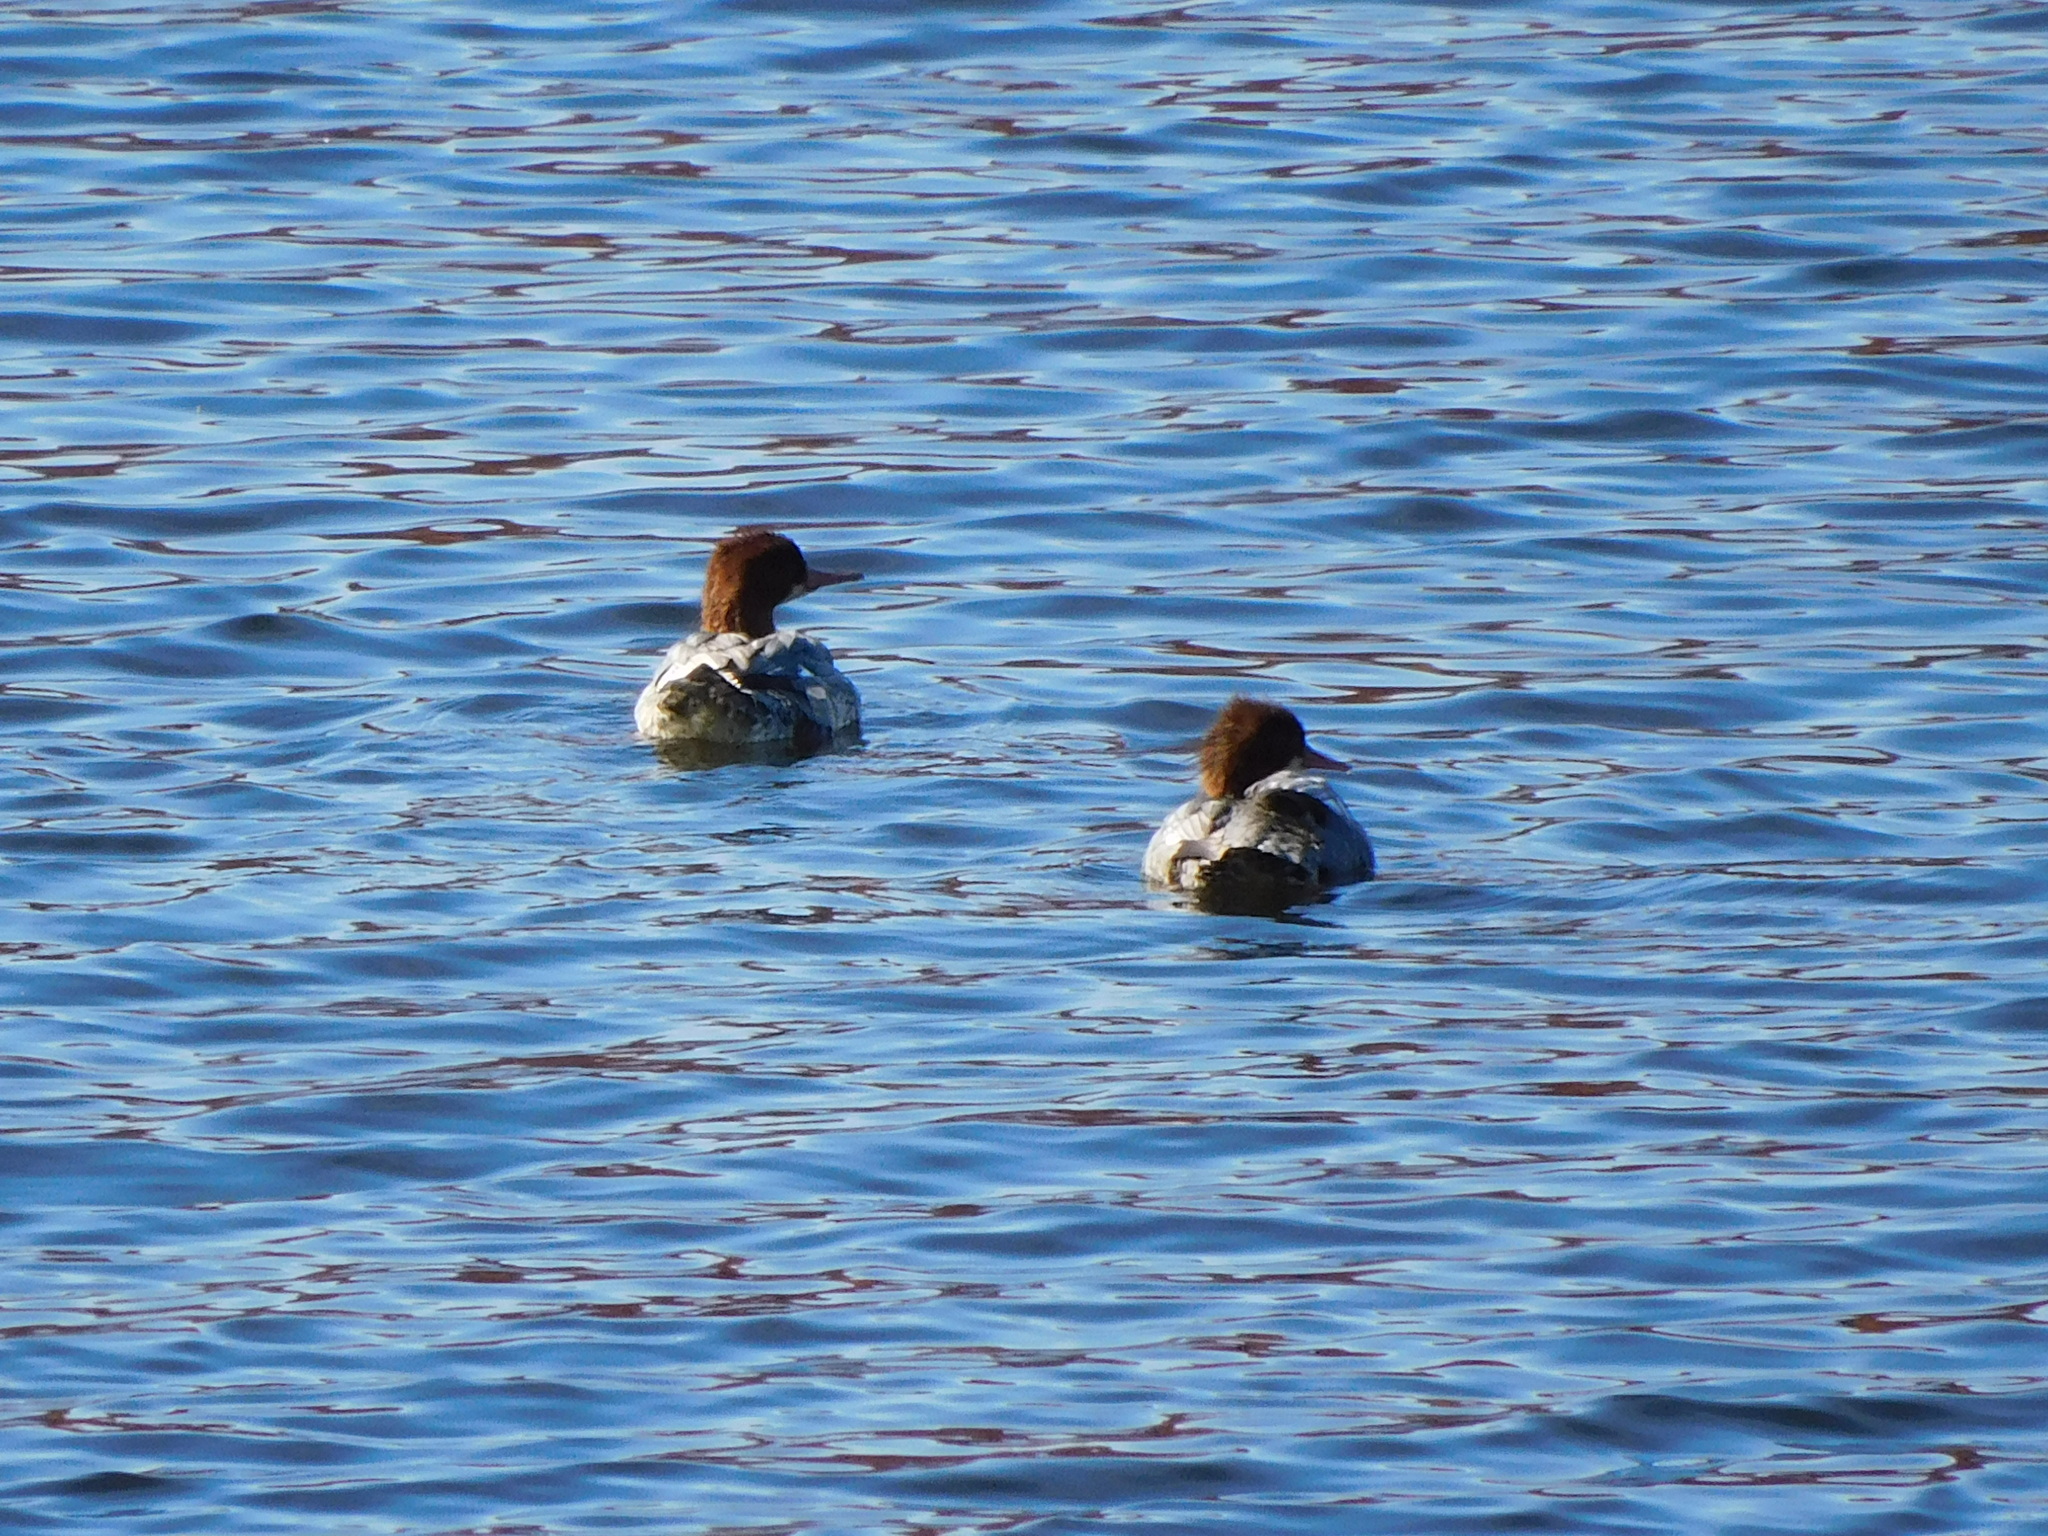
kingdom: Animalia
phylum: Chordata
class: Aves
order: Anseriformes
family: Anatidae
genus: Mergus
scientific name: Mergus merganser
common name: Common merganser
